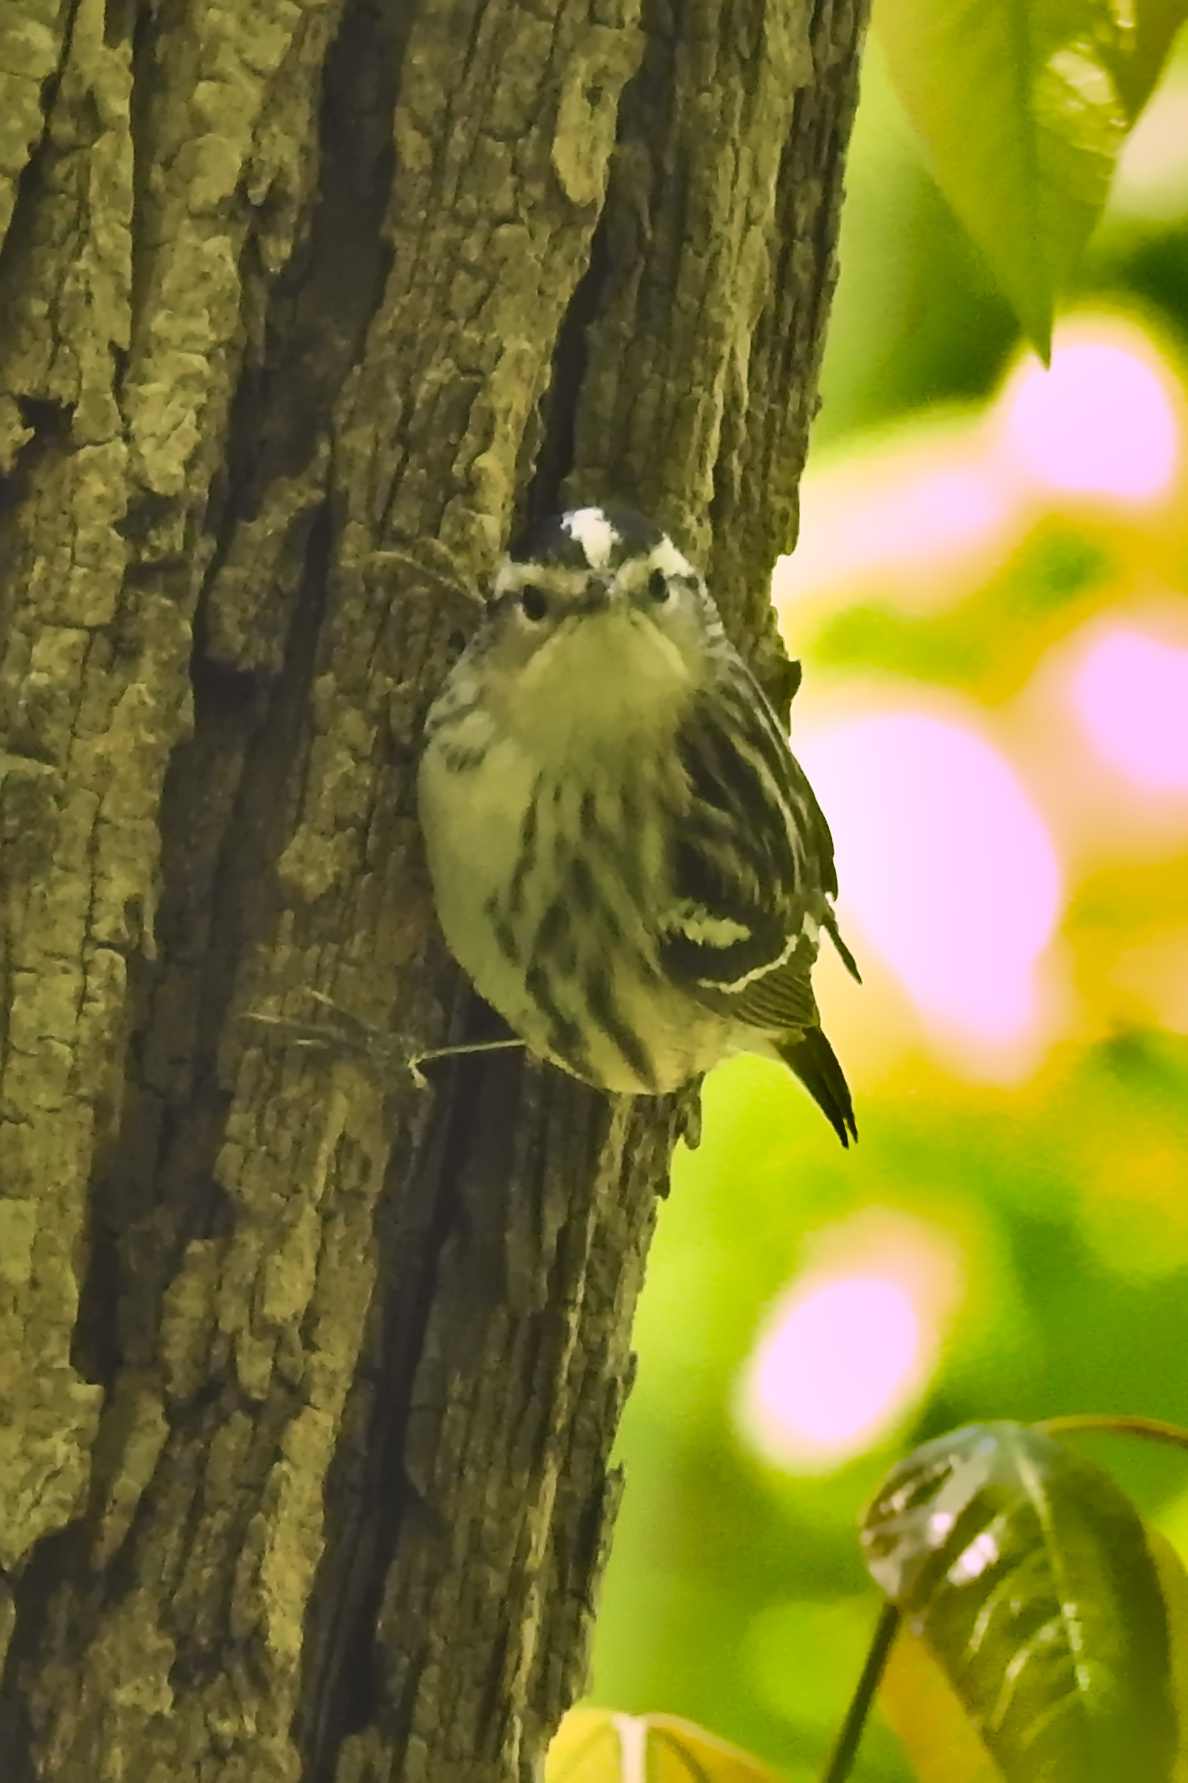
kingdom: Animalia
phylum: Chordata
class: Aves
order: Passeriformes
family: Parulidae
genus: Mniotilta
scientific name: Mniotilta varia
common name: Black-and-white warbler
